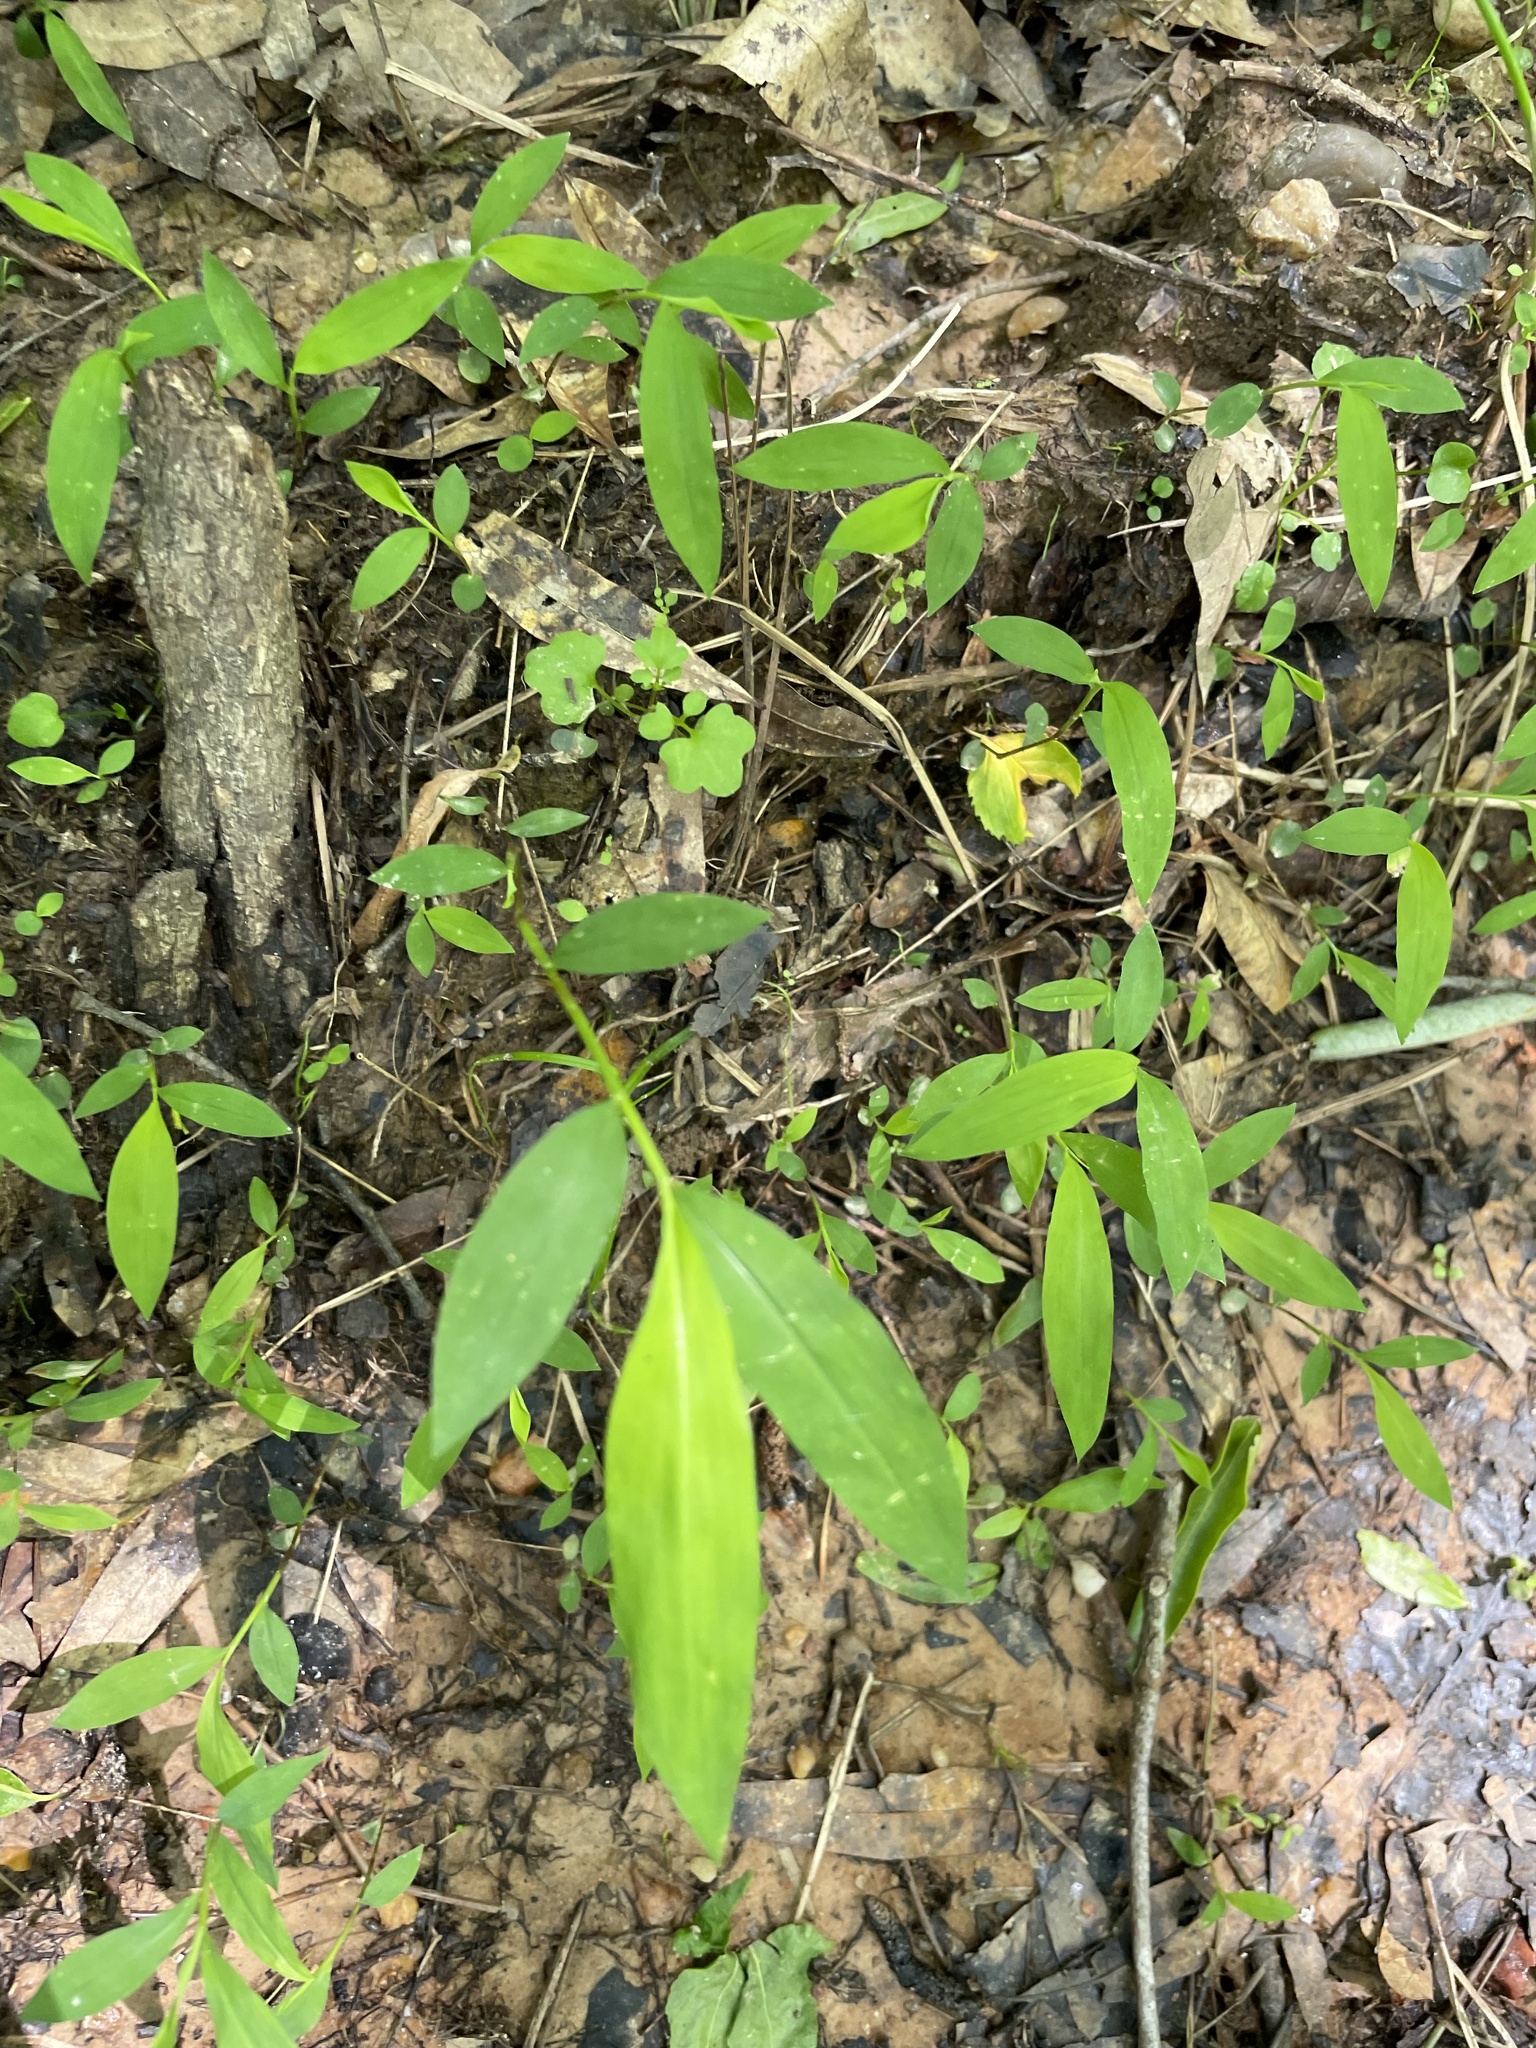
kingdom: Plantae
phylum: Tracheophyta
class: Liliopsida
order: Poales
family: Poaceae
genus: Microstegium
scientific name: Microstegium vimineum
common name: Japanese stiltgrass
